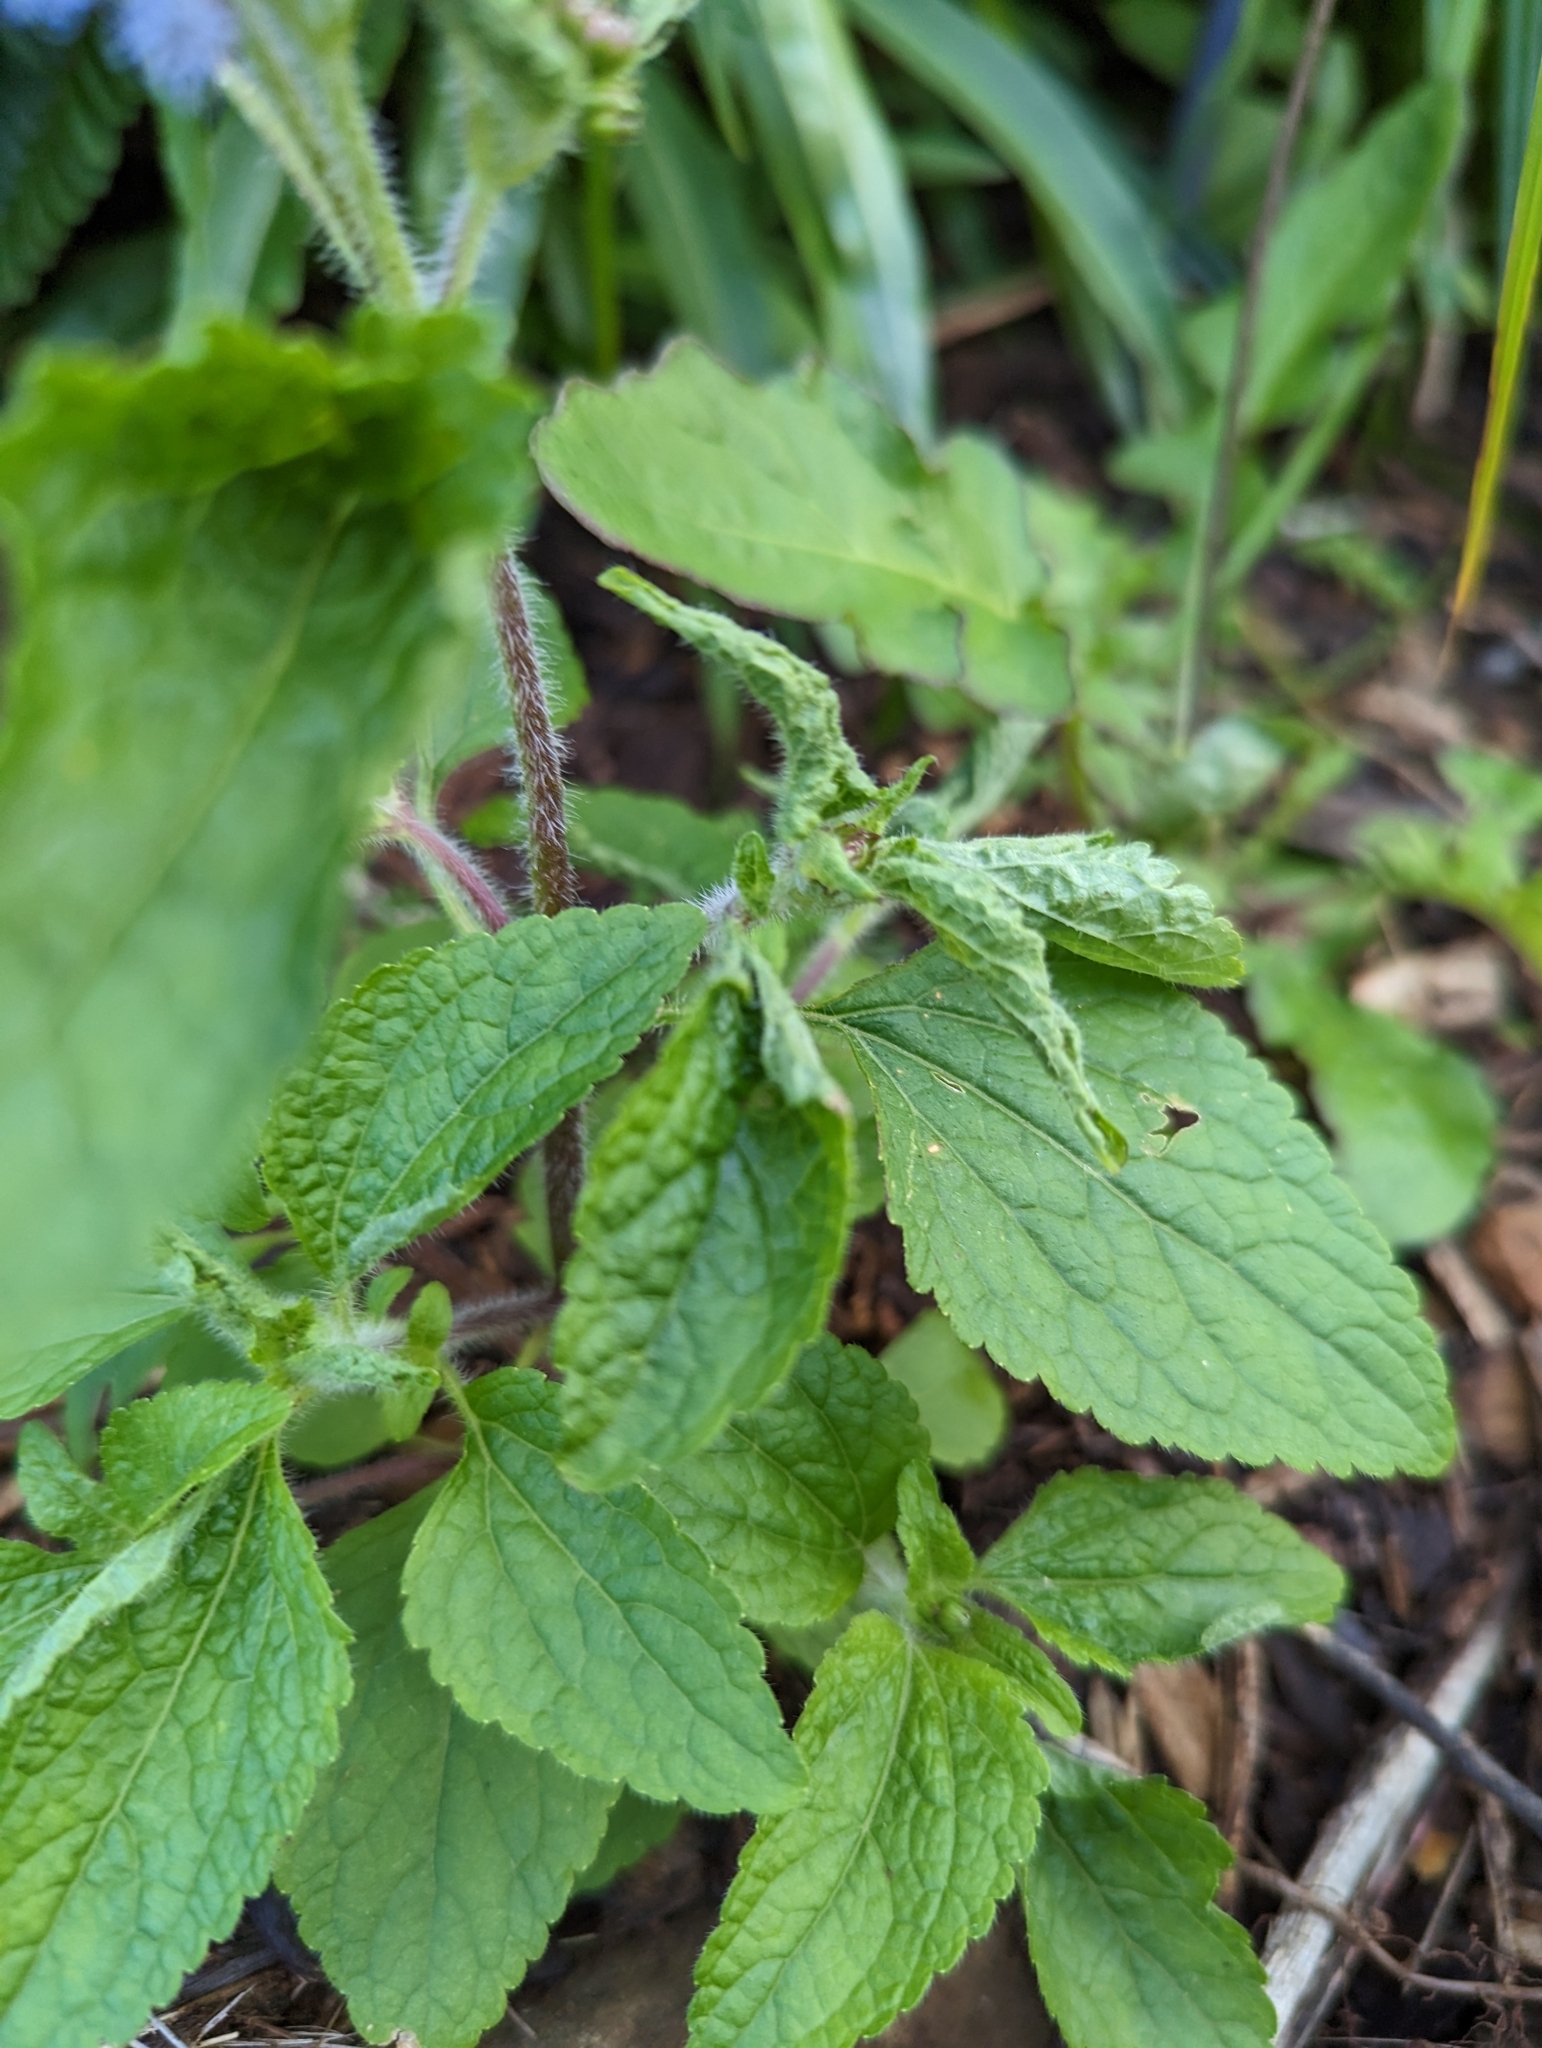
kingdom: Plantae
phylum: Tracheophyta
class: Magnoliopsida
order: Asterales
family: Asteraceae
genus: Ageratum
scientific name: Ageratum houstonianum
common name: Bluemink
